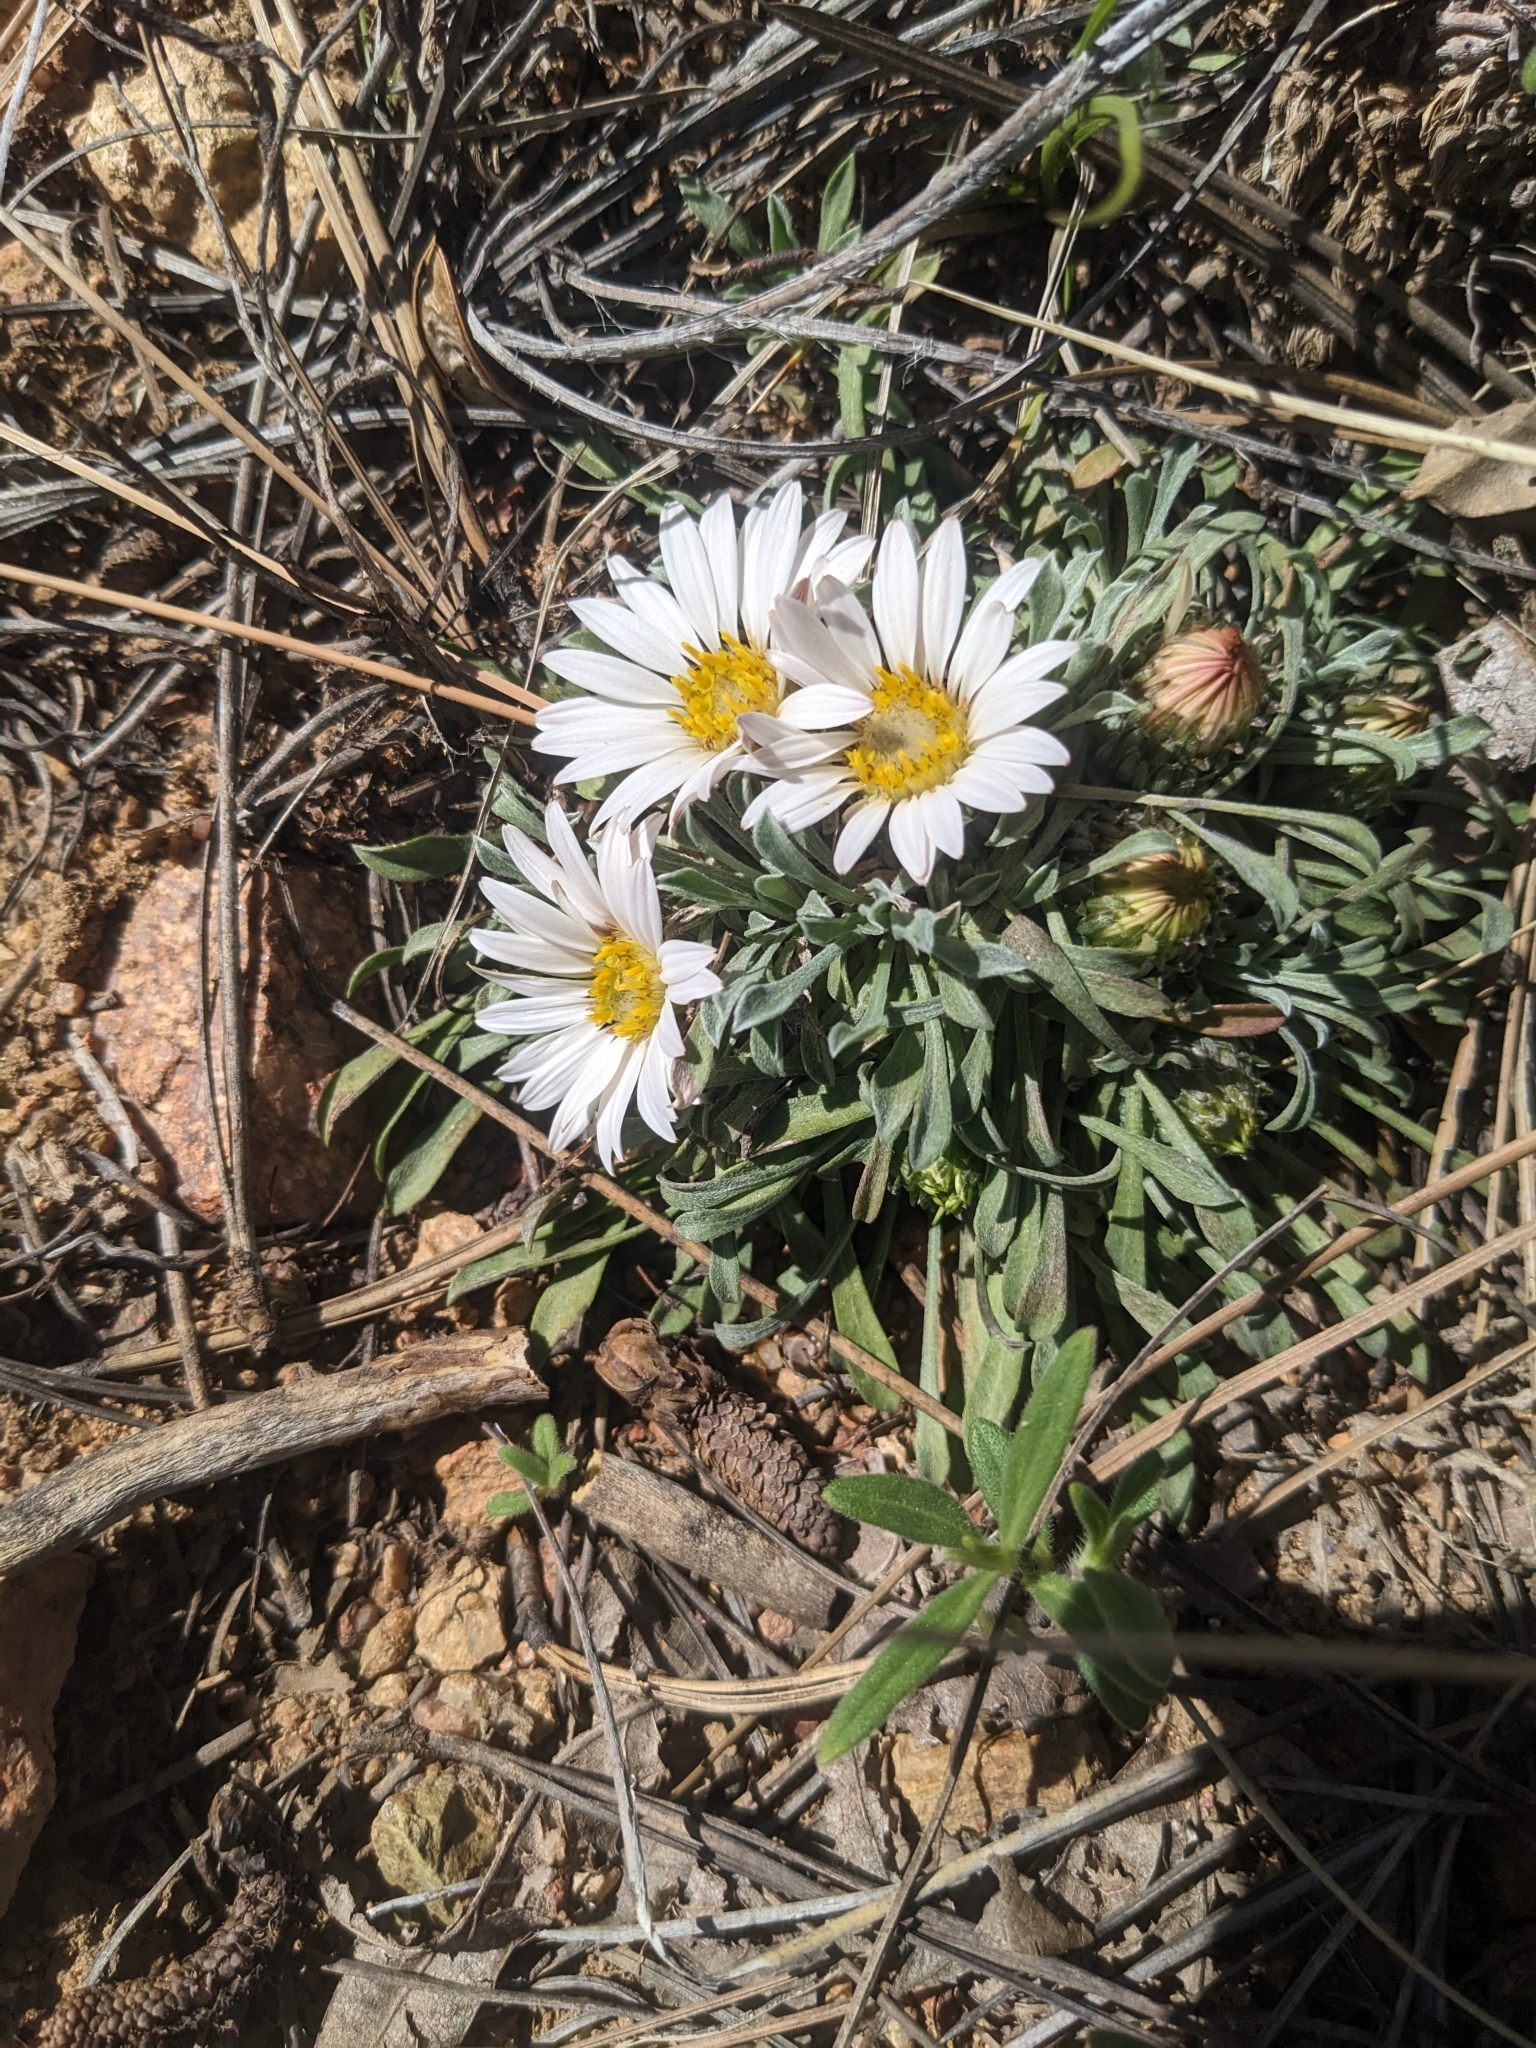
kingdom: Plantae
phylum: Tracheophyta
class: Magnoliopsida
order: Asterales
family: Asteraceae
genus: Townsendia
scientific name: Townsendia exscapa
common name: Dwarf townsendia
